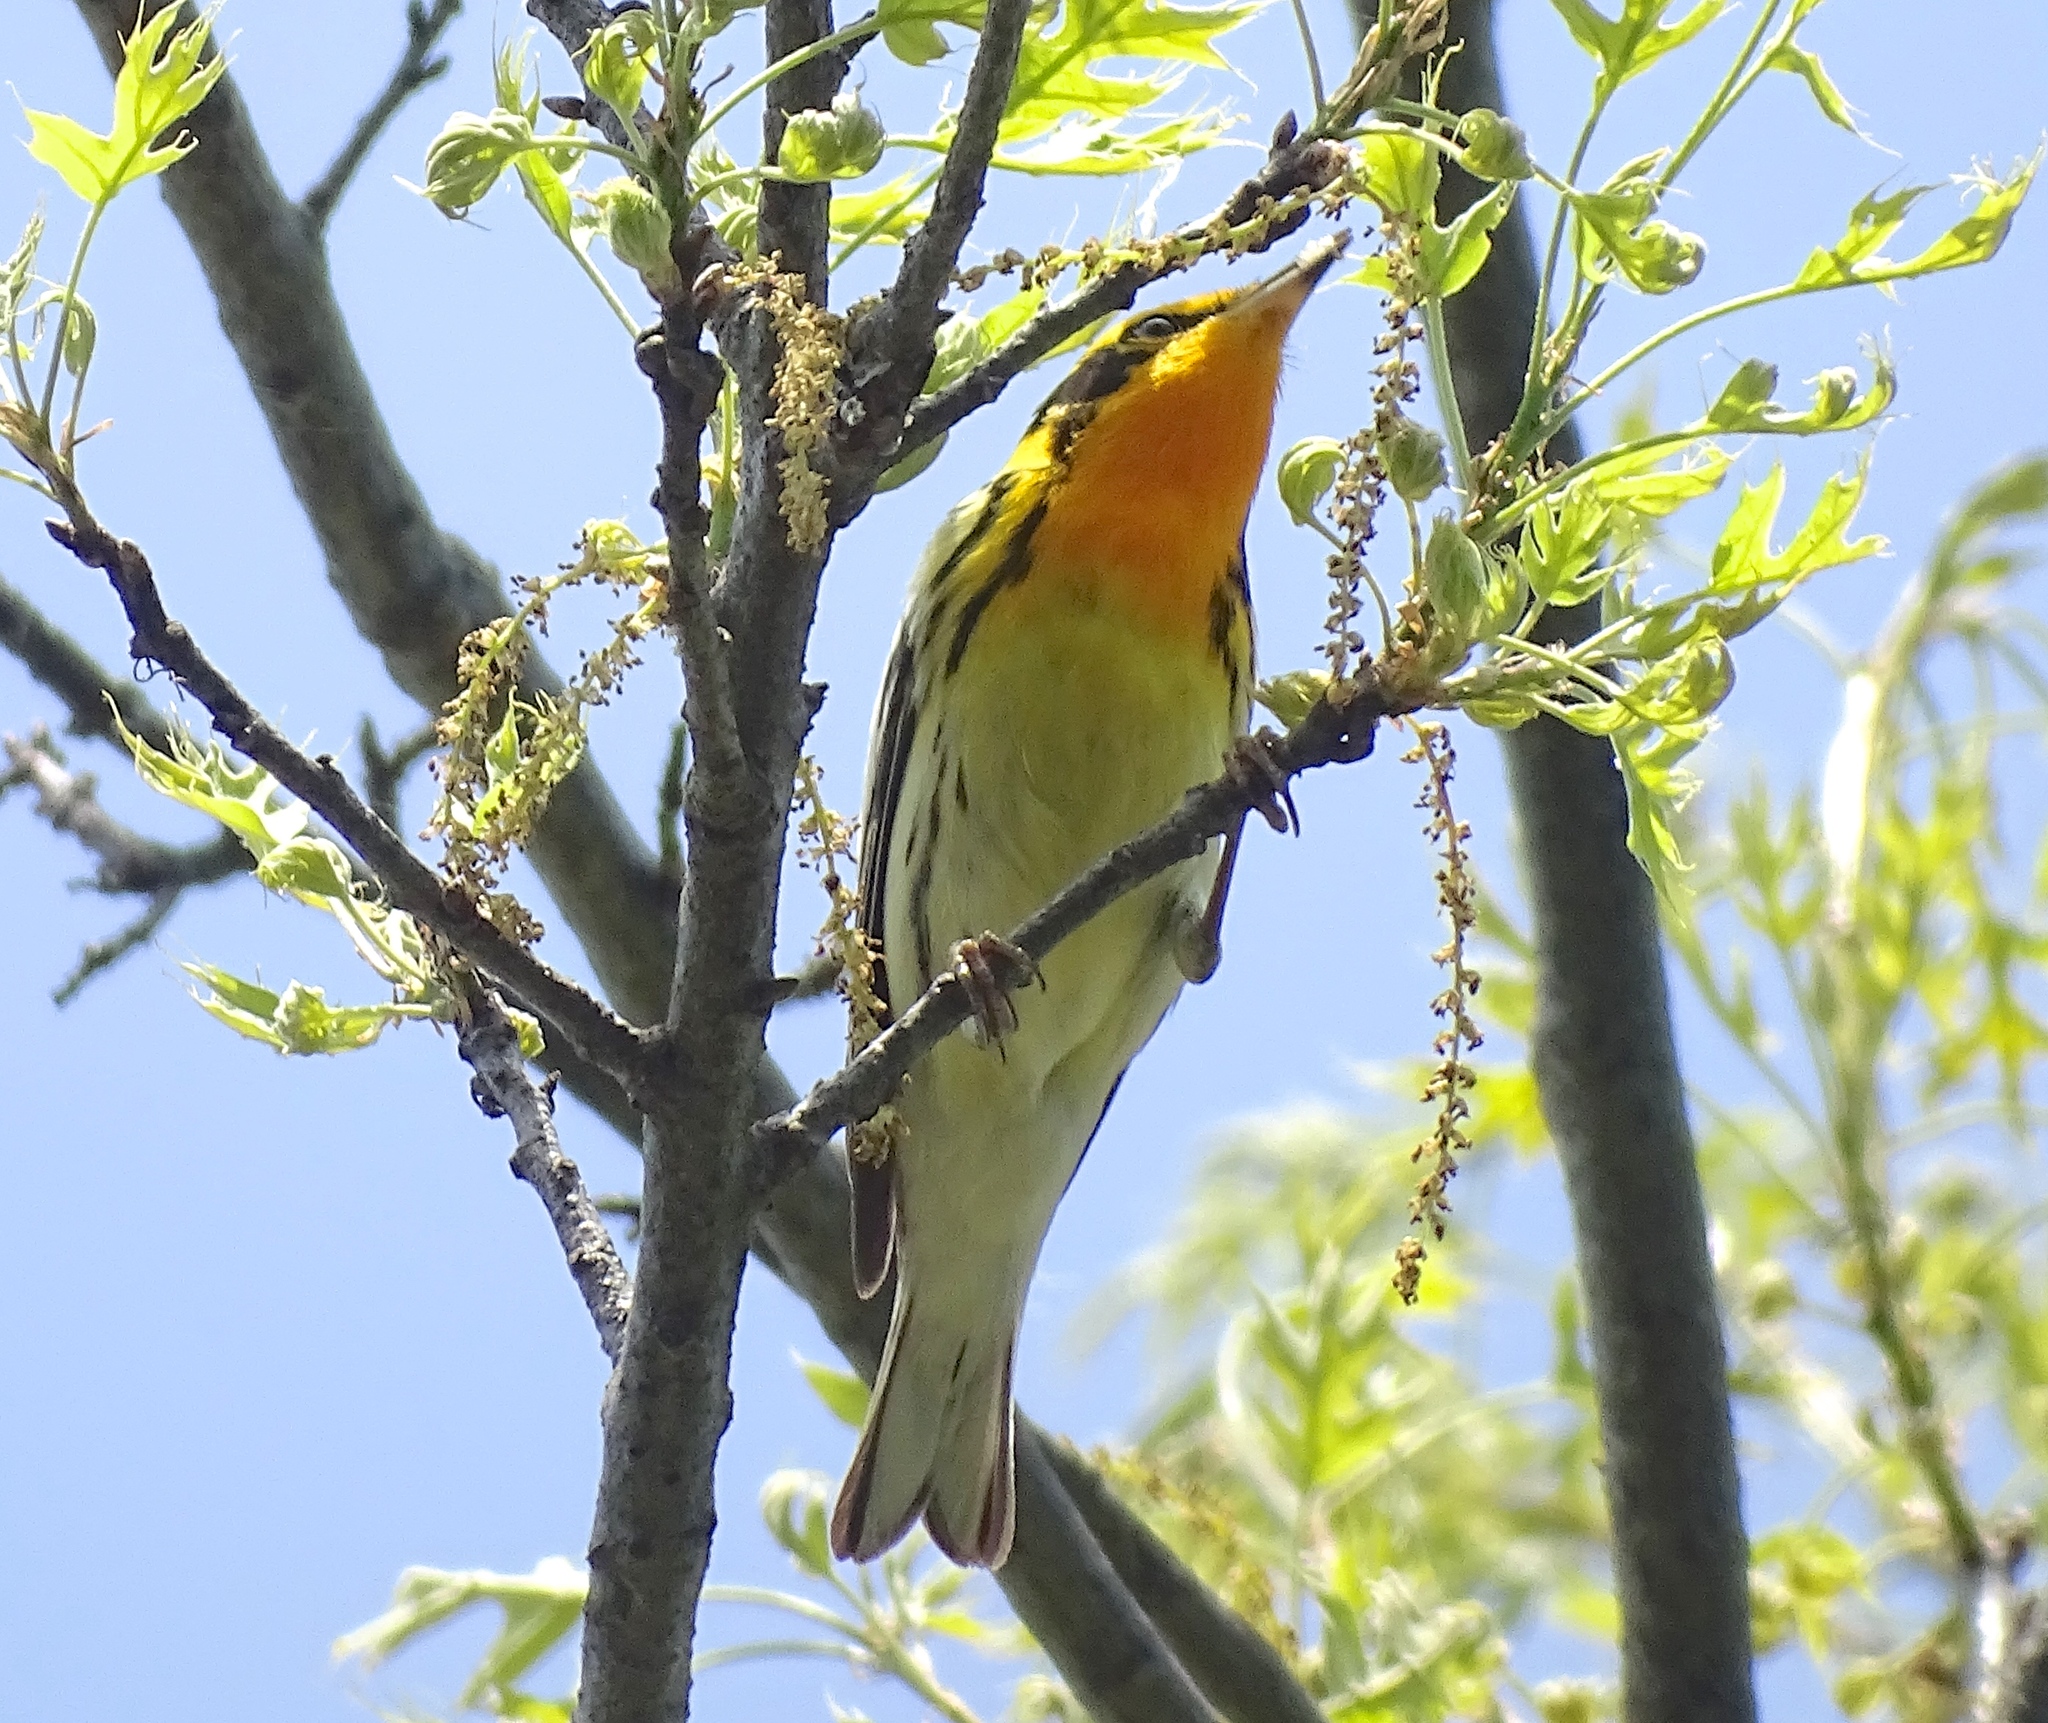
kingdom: Animalia
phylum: Chordata
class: Aves
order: Passeriformes
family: Parulidae
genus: Setophaga
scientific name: Setophaga fusca
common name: Blackburnian warbler
